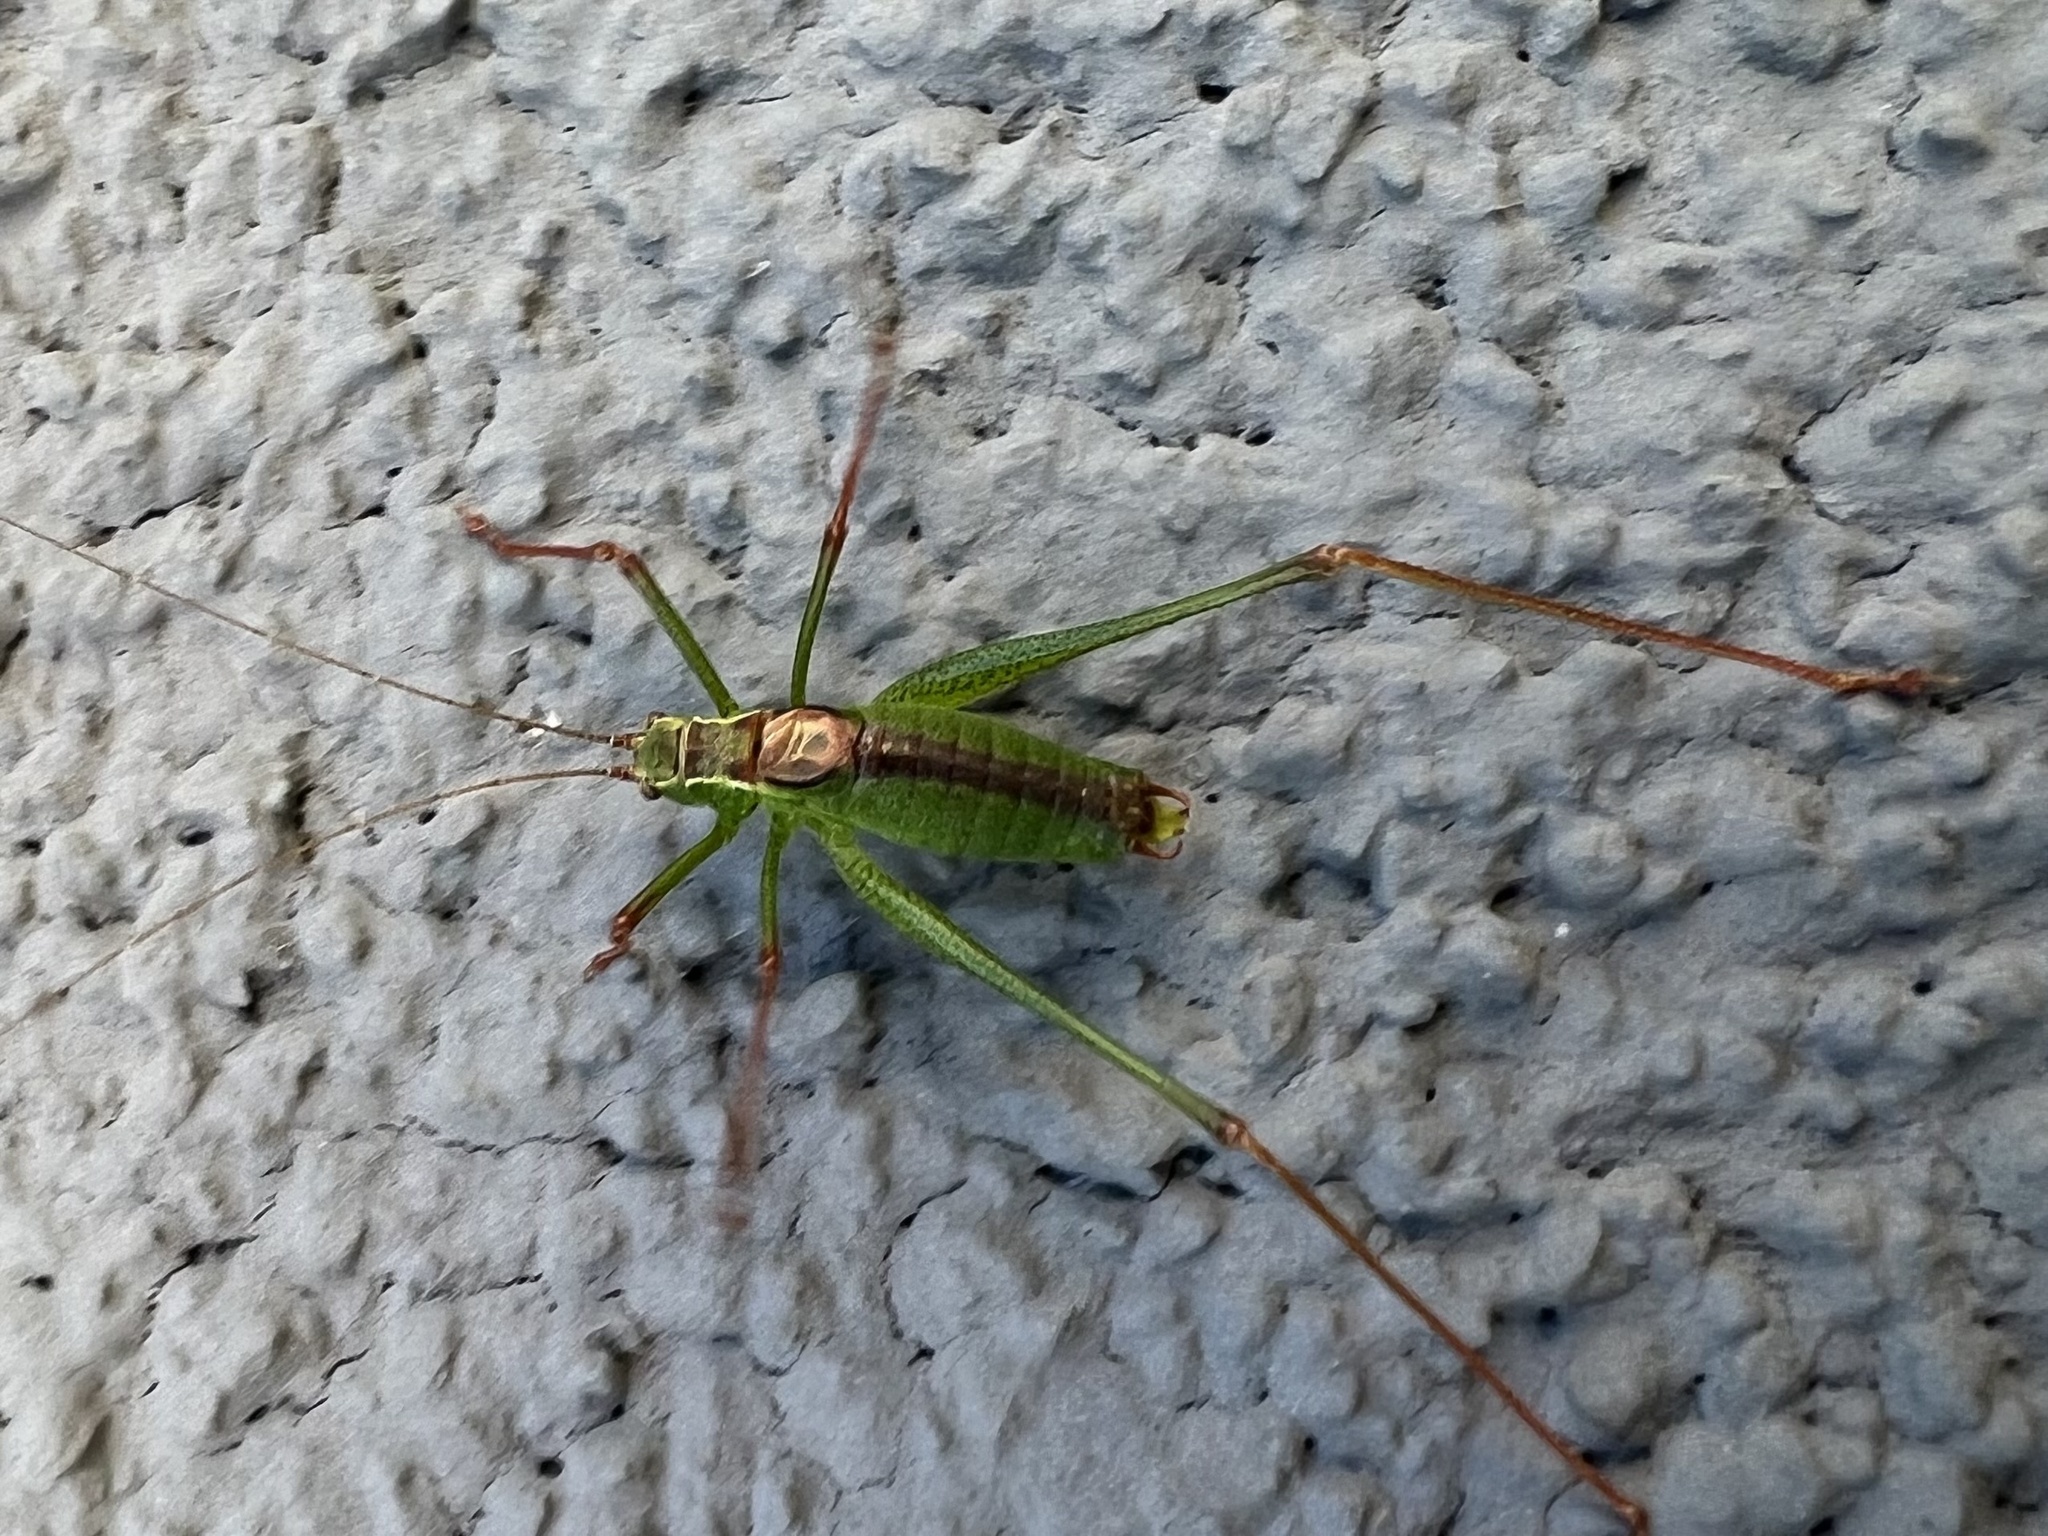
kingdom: Animalia
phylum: Arthropoda
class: Insecta
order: Orthoptera
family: Tettigoniidae
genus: Leptophyes
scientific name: Leptophyes punctatissima
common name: Speckled bush-cricket
